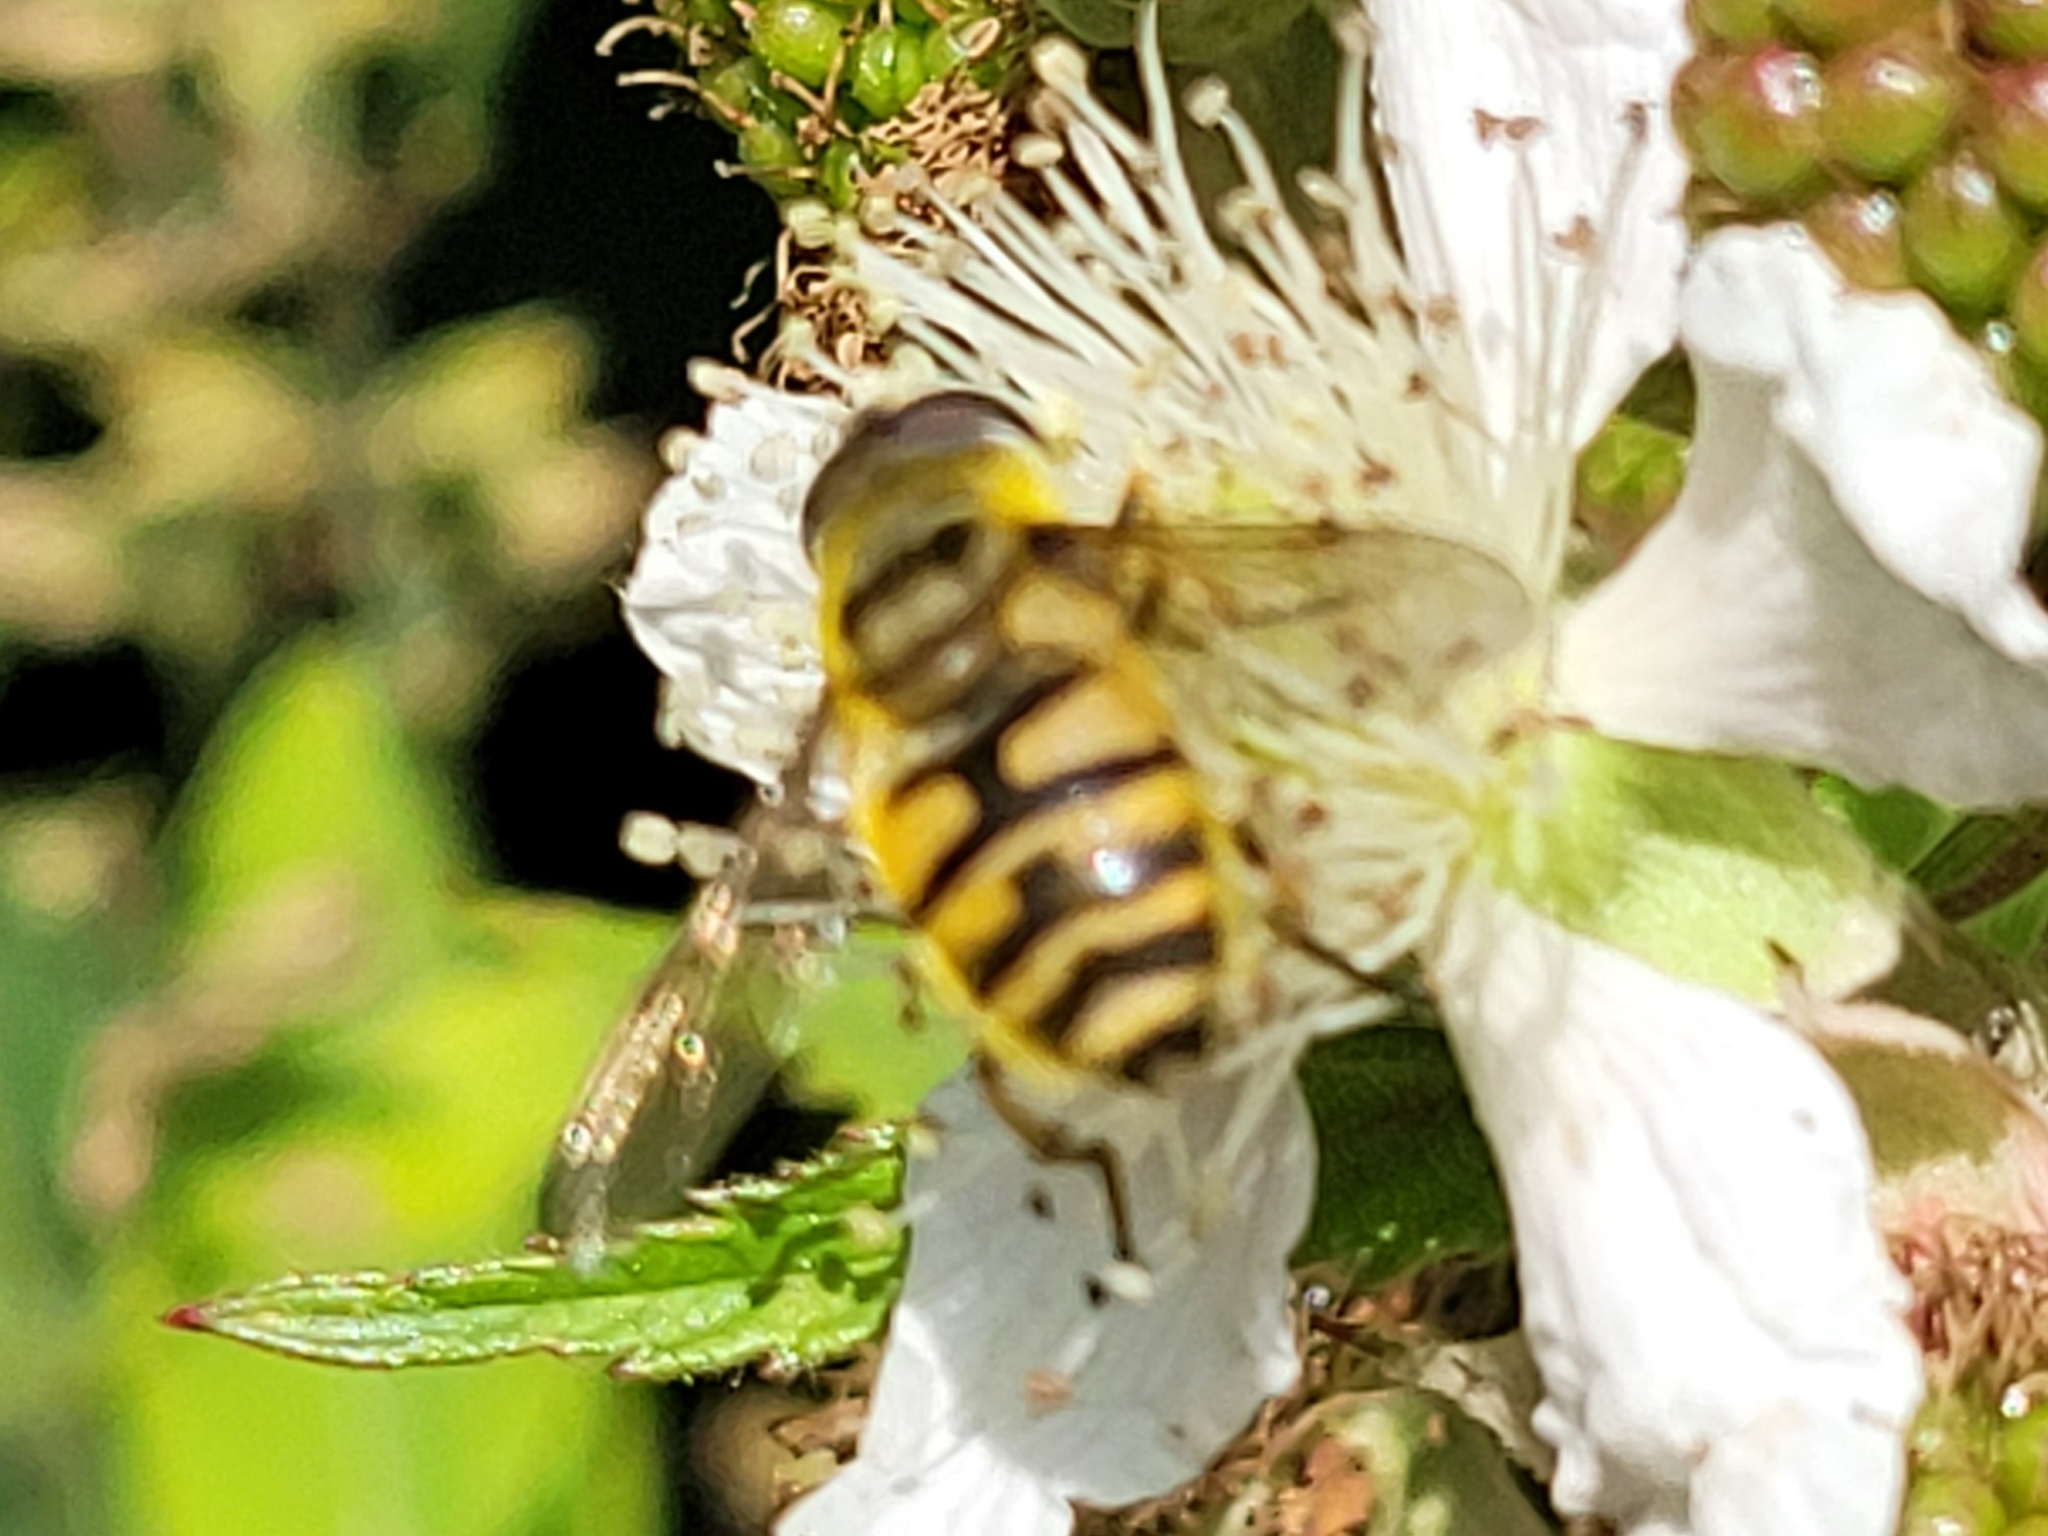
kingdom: Animalia
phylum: Arthropoda
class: Insecta
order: Diptera
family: Syrphidae
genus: Myathropa
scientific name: Myathropa florea
